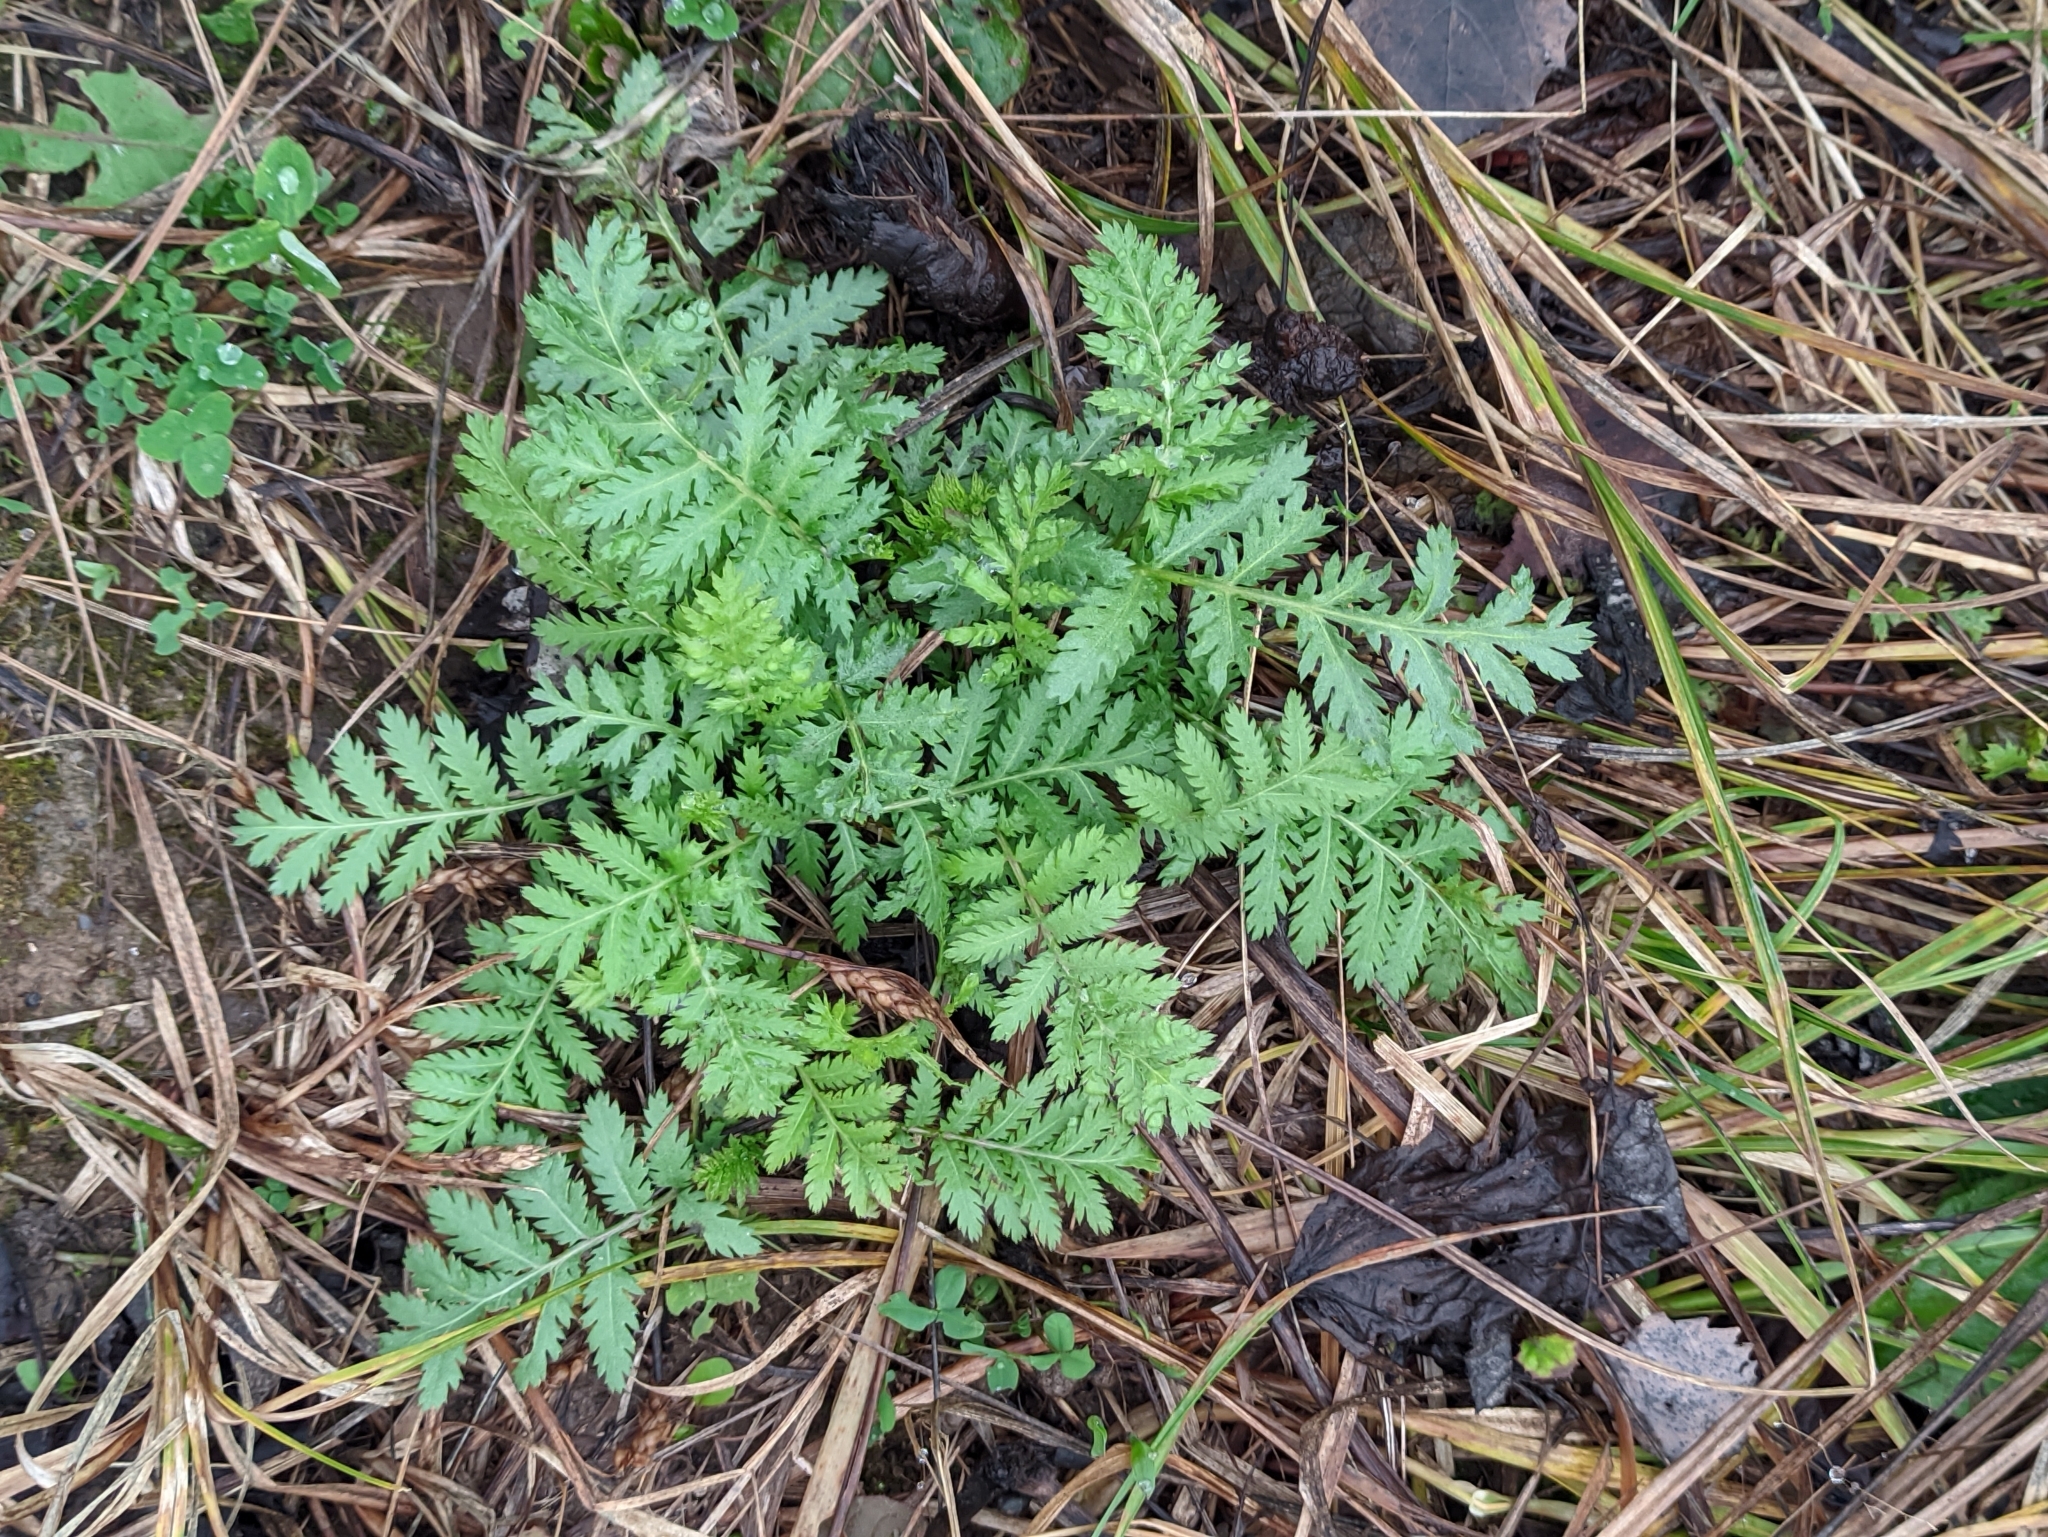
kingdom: Plantae
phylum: Tracheophyta
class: Magnoliopsida
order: Asterales
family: Asteraceae
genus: Tanacetum
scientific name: Tanacetum vulgare
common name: Common tansy
